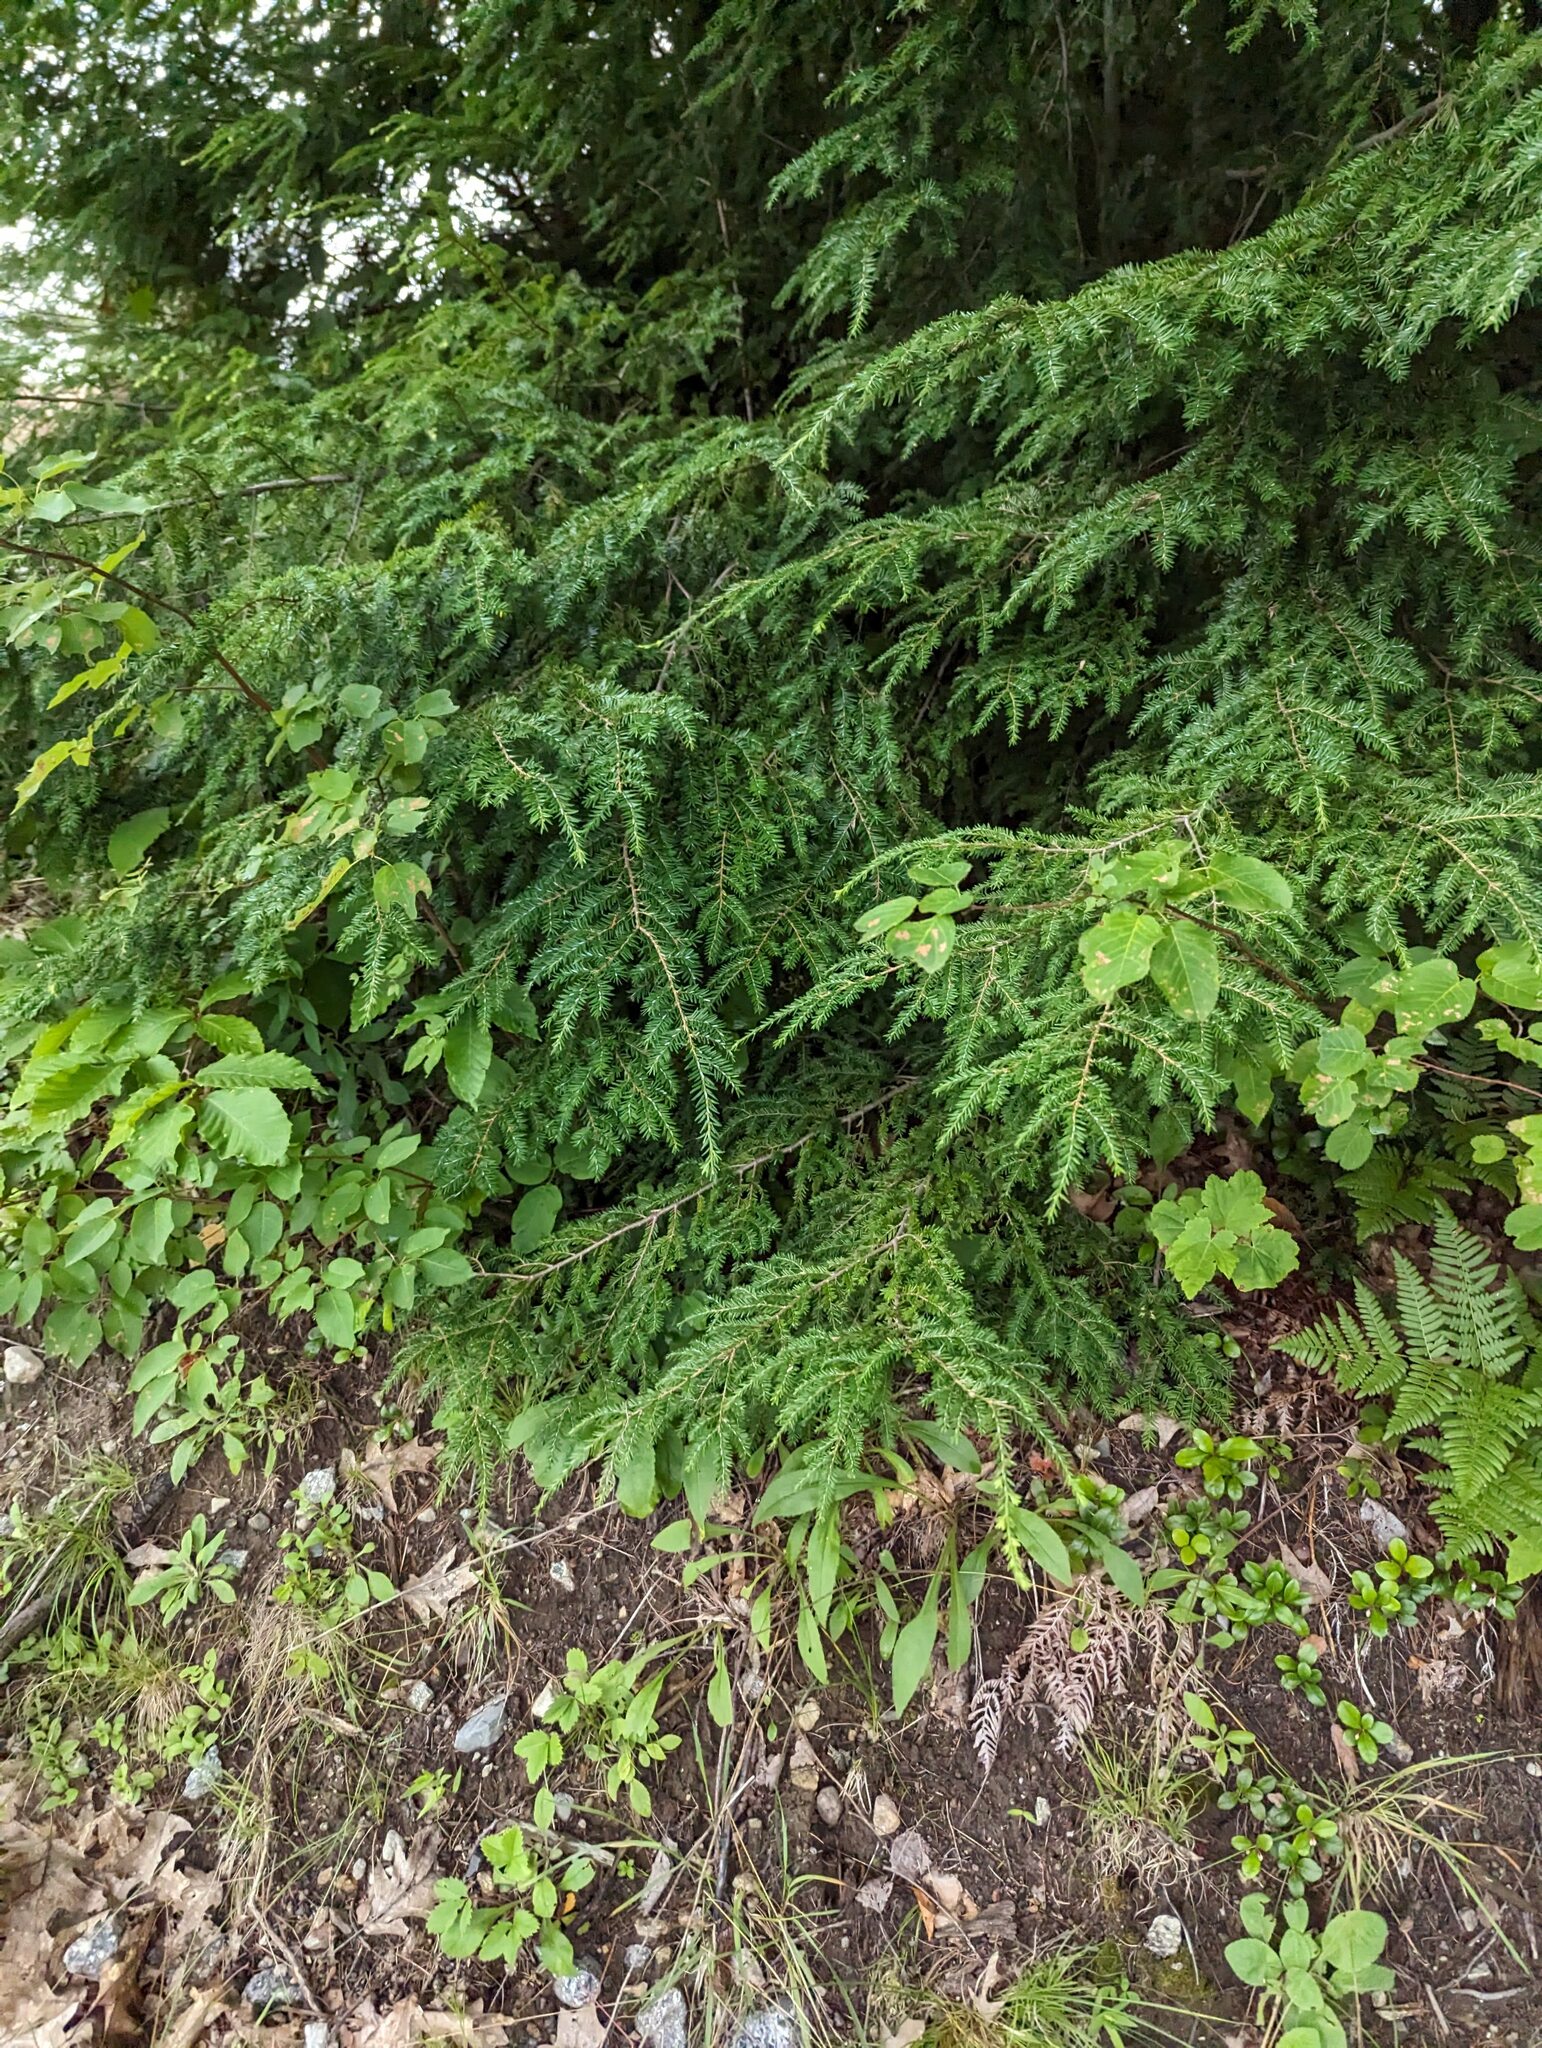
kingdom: Plantae
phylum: Tracheophyta
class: Pinopsida
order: Pinales
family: Pinaceae
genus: Tsuga
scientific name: Tsuga canadensis
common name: Eastern hemlock
